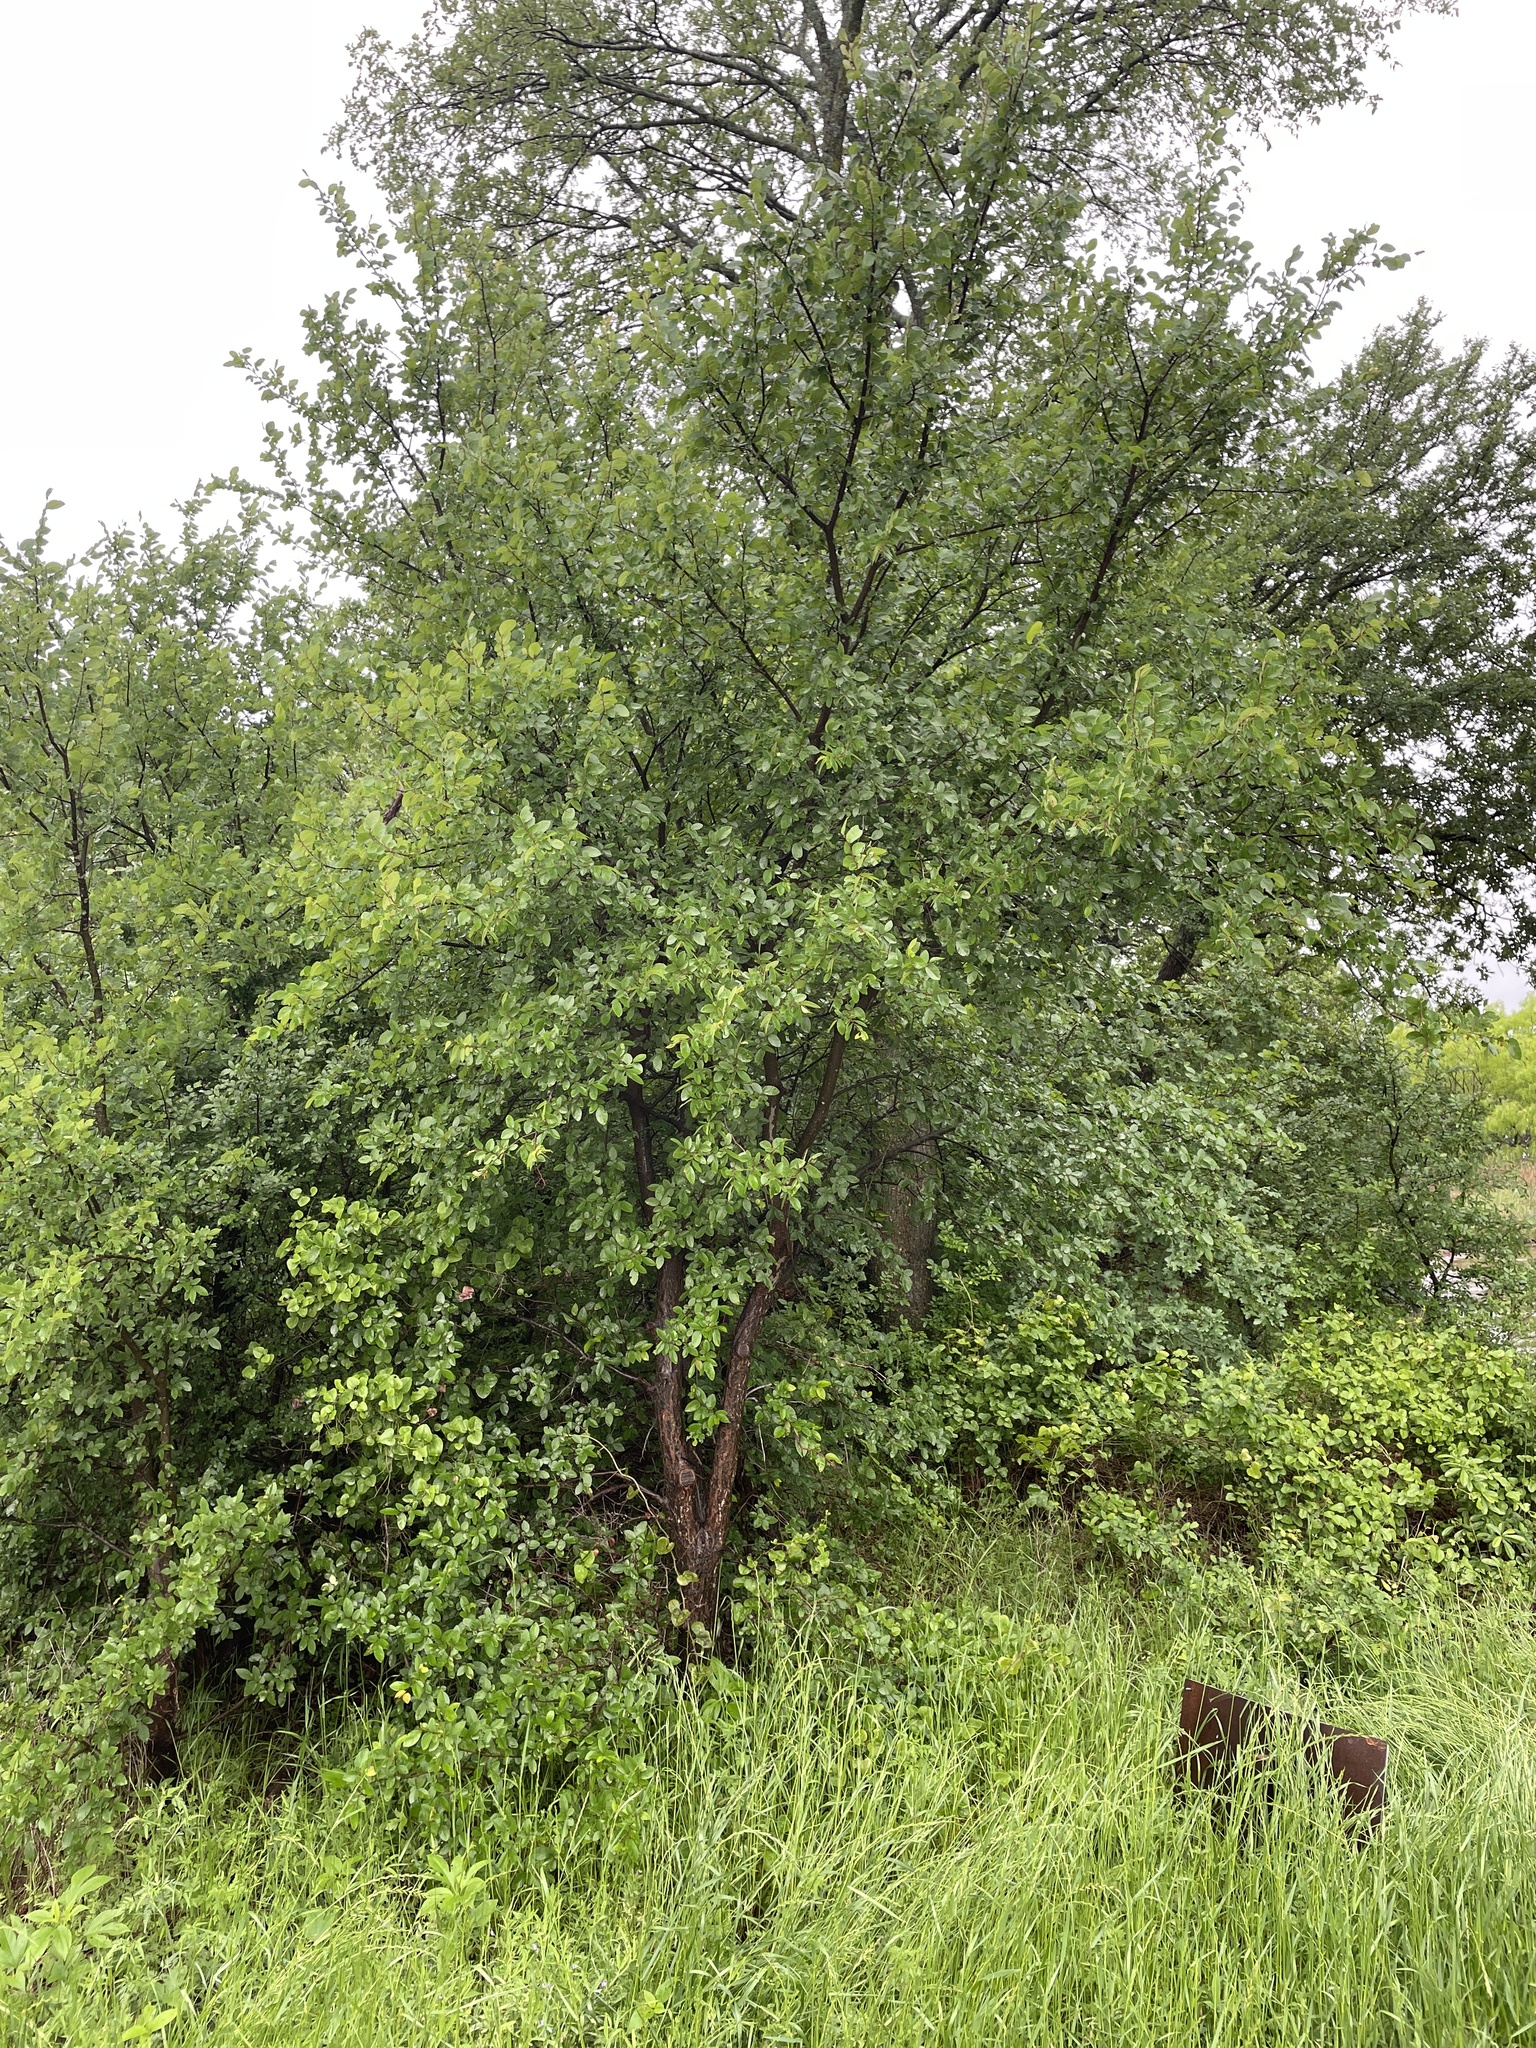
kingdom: Plantae
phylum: Tracheophyta
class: Magnoliopsida
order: Rosales
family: Ulmaceae
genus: Ulmus
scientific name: Ulmus crassifolia
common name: Basket elm
